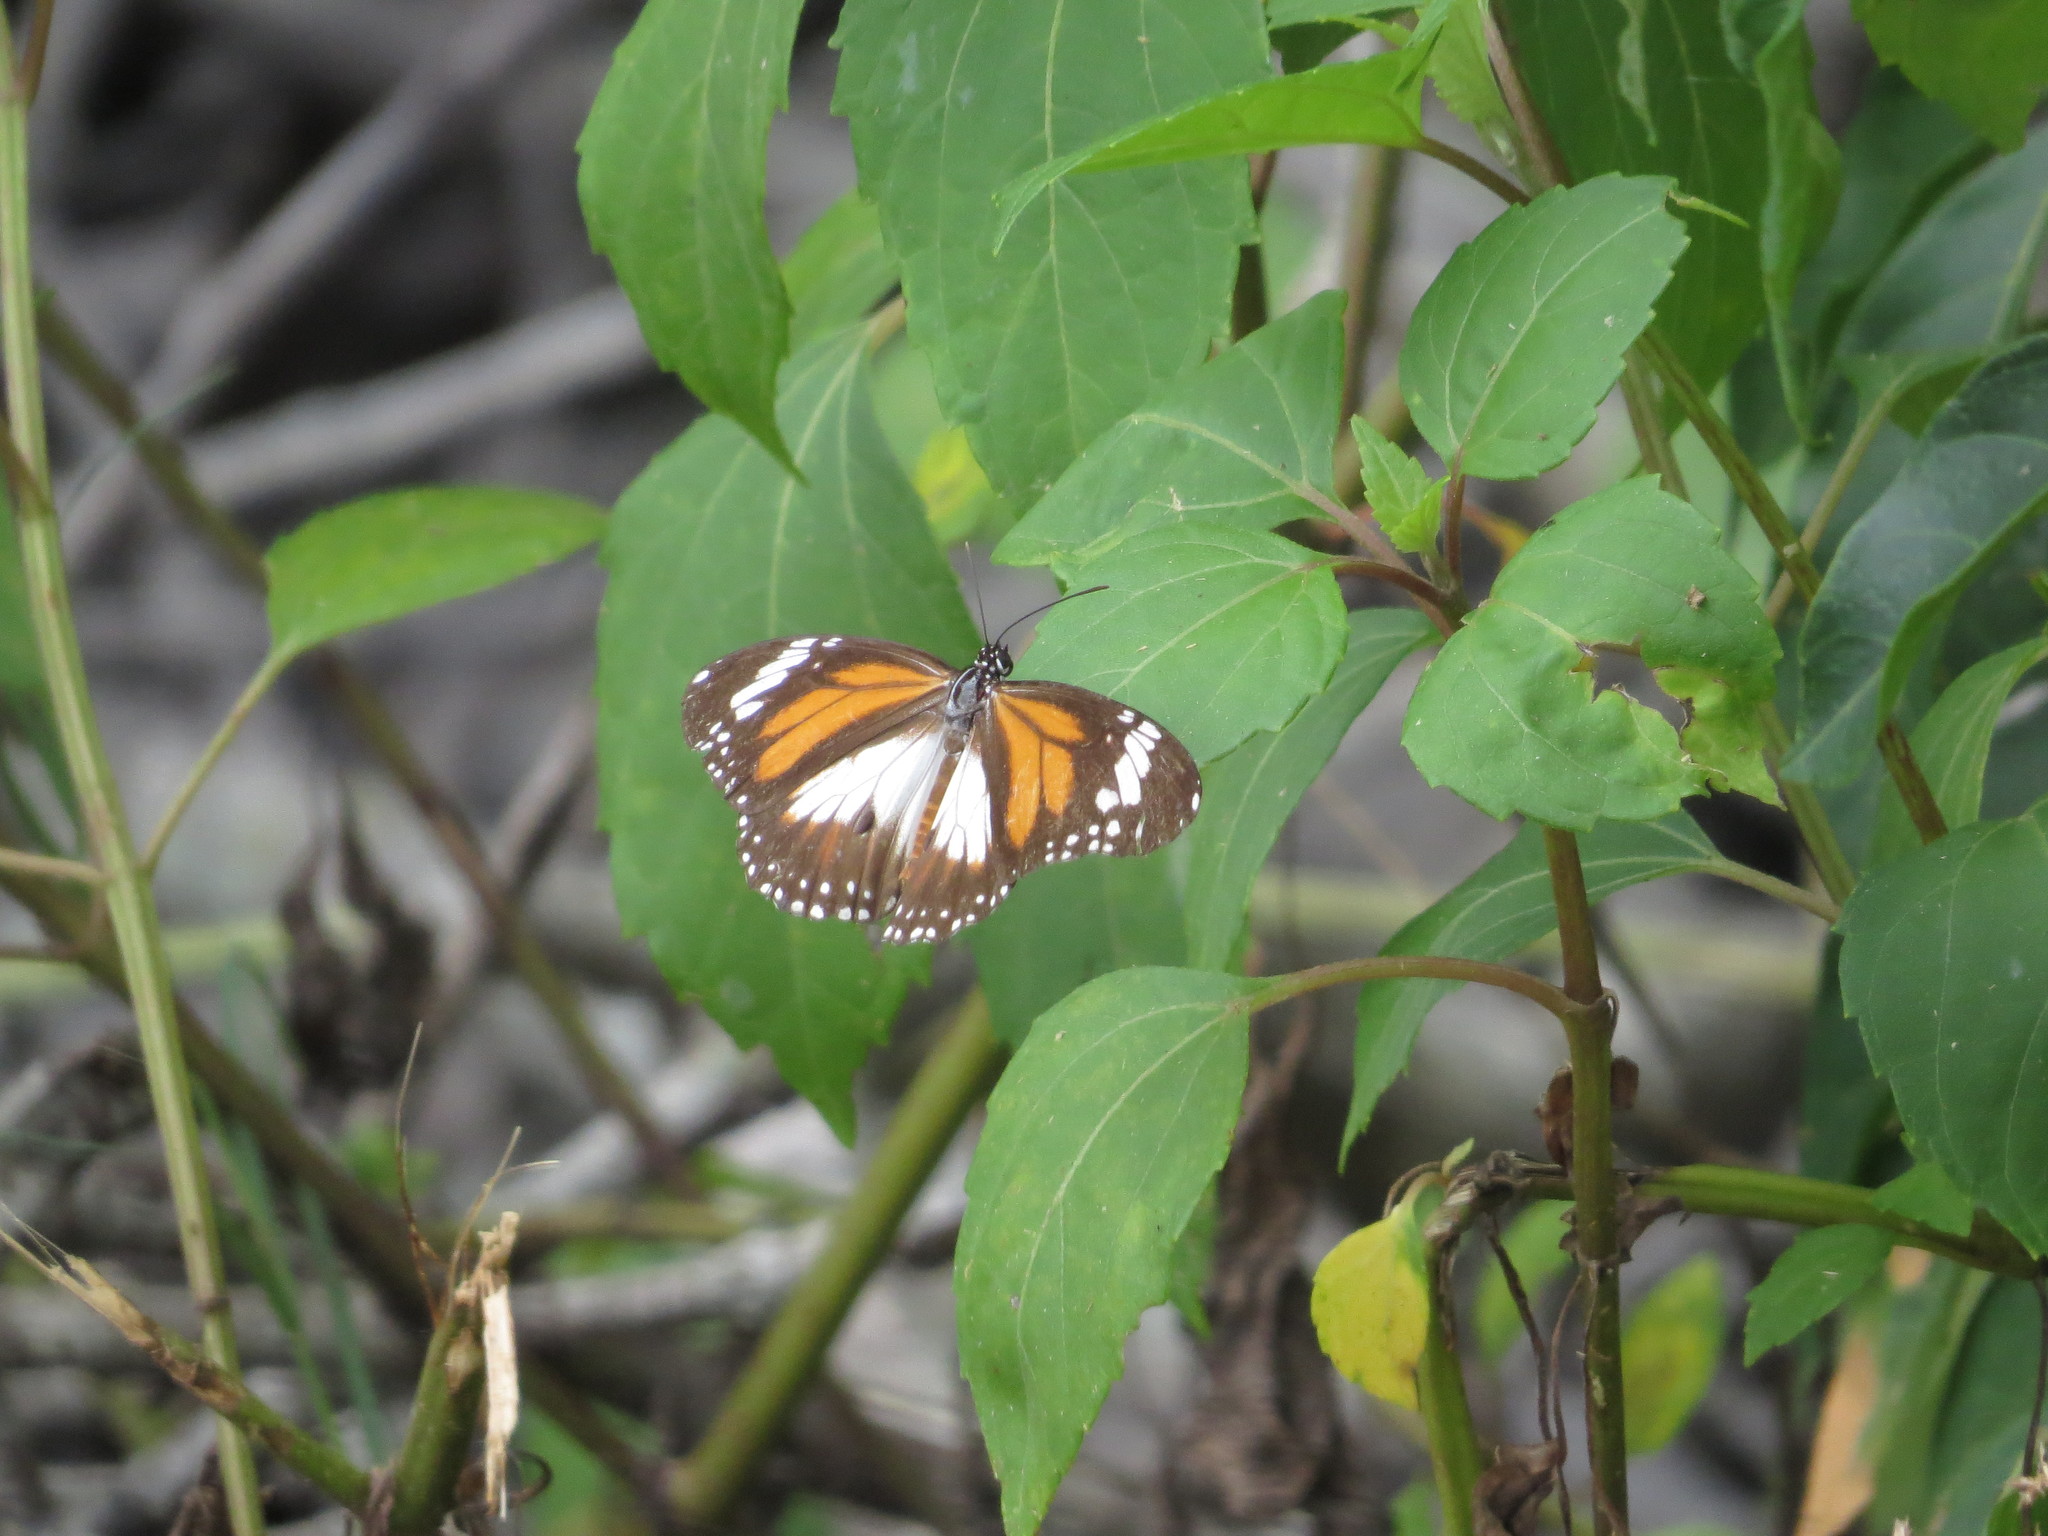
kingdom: Animalia
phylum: Arthropoda
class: Insecta
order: Lepidoptera
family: Nymphalidae
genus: Danaus
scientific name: Danaus affinis
